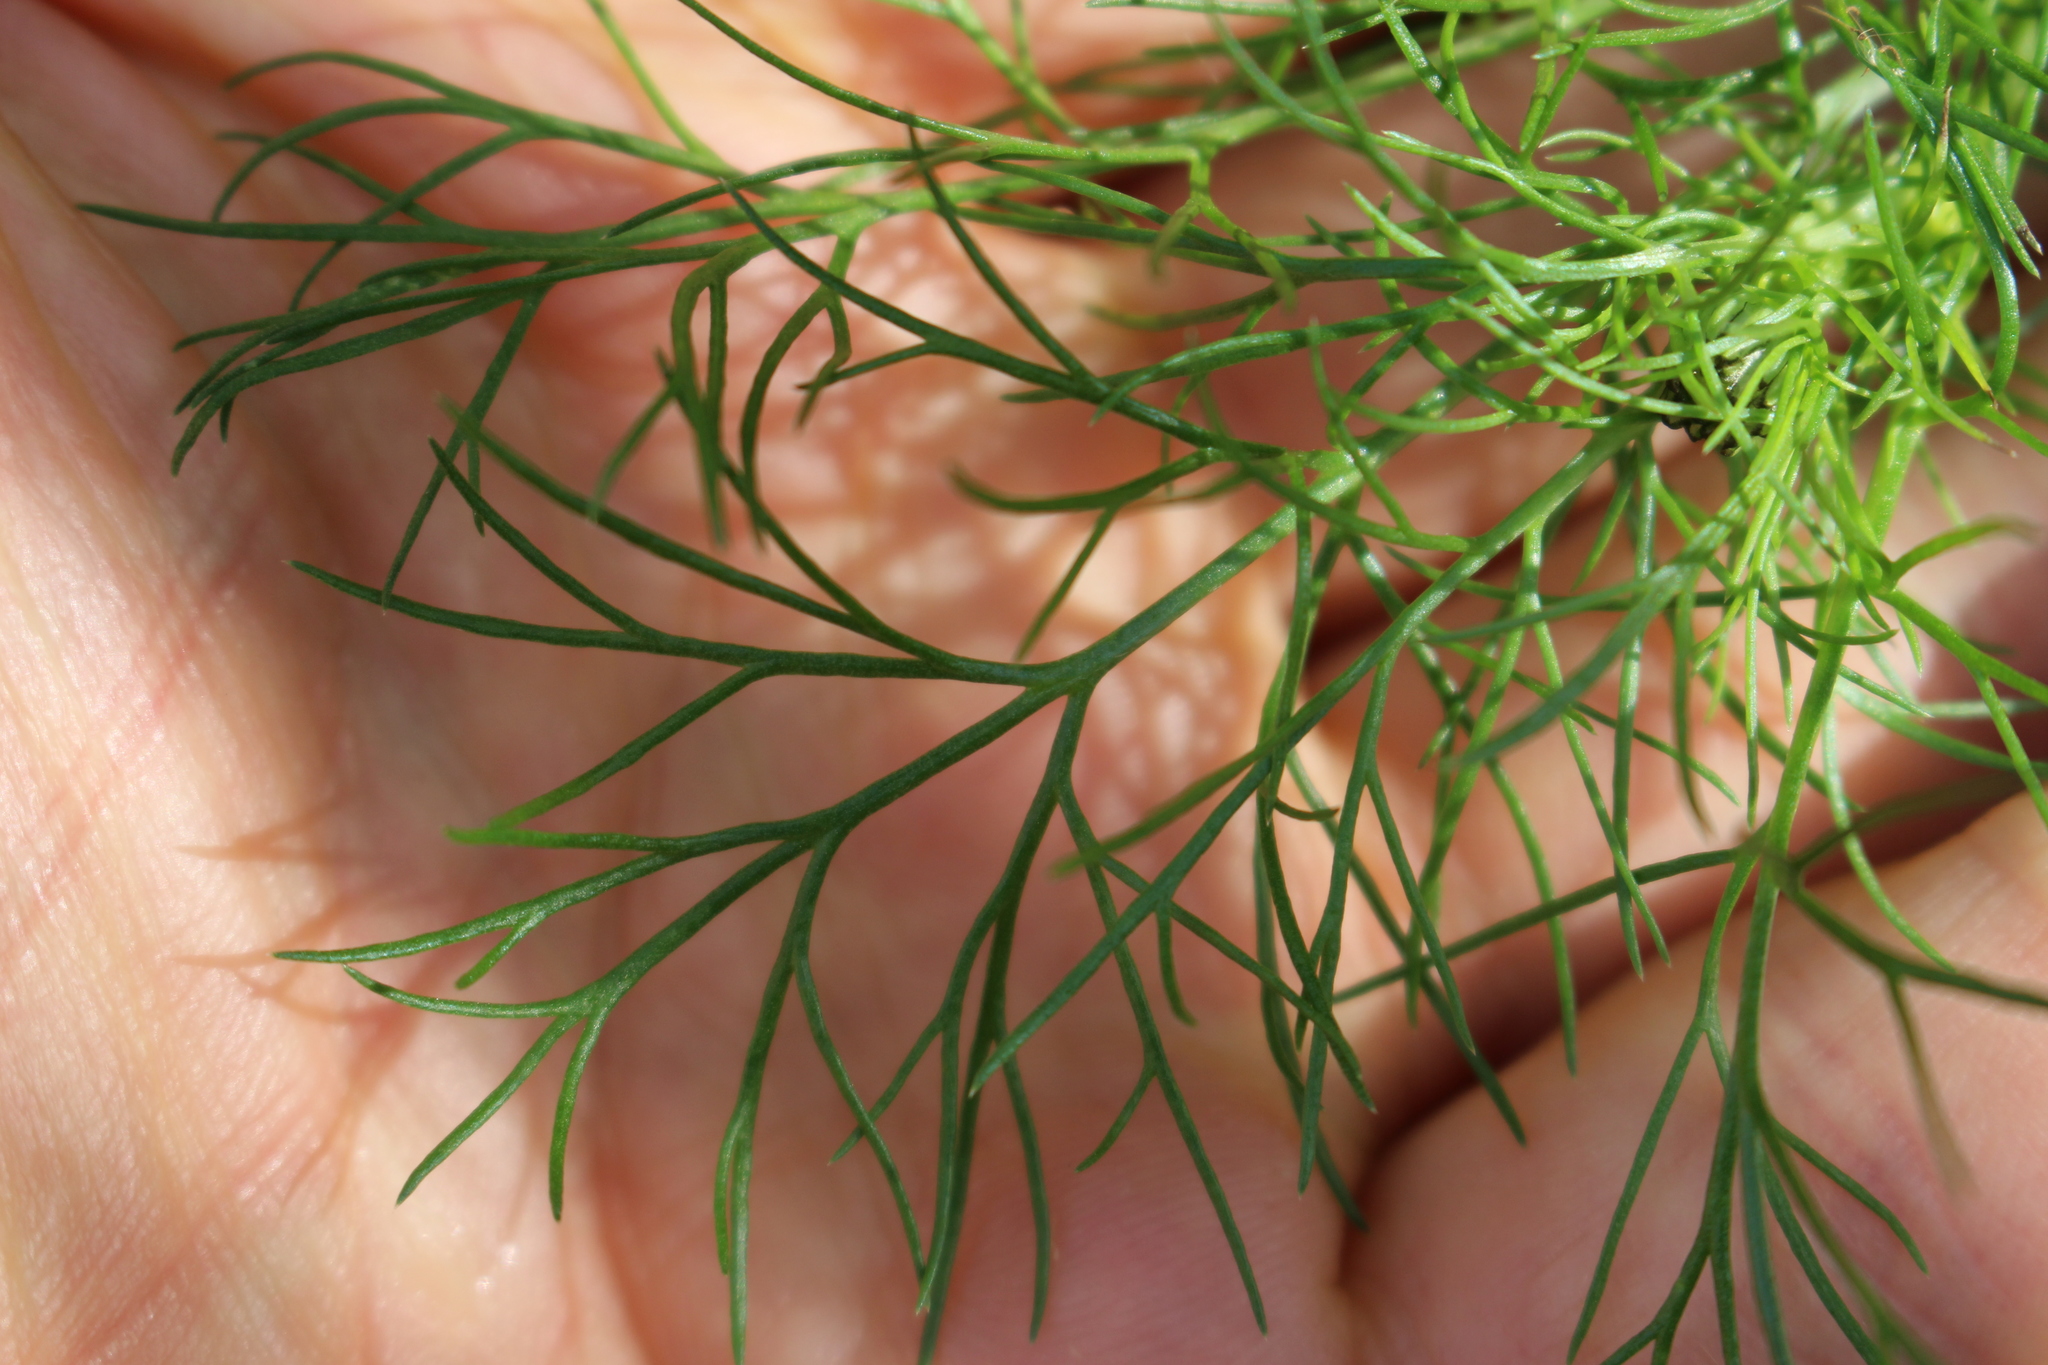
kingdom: Plantae
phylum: Tracheophyta
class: Magnoliopsida
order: Asterales
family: Asteraceae
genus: Tripleurospermum
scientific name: Tripleurospermum inodorum
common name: Scentless mayweed
